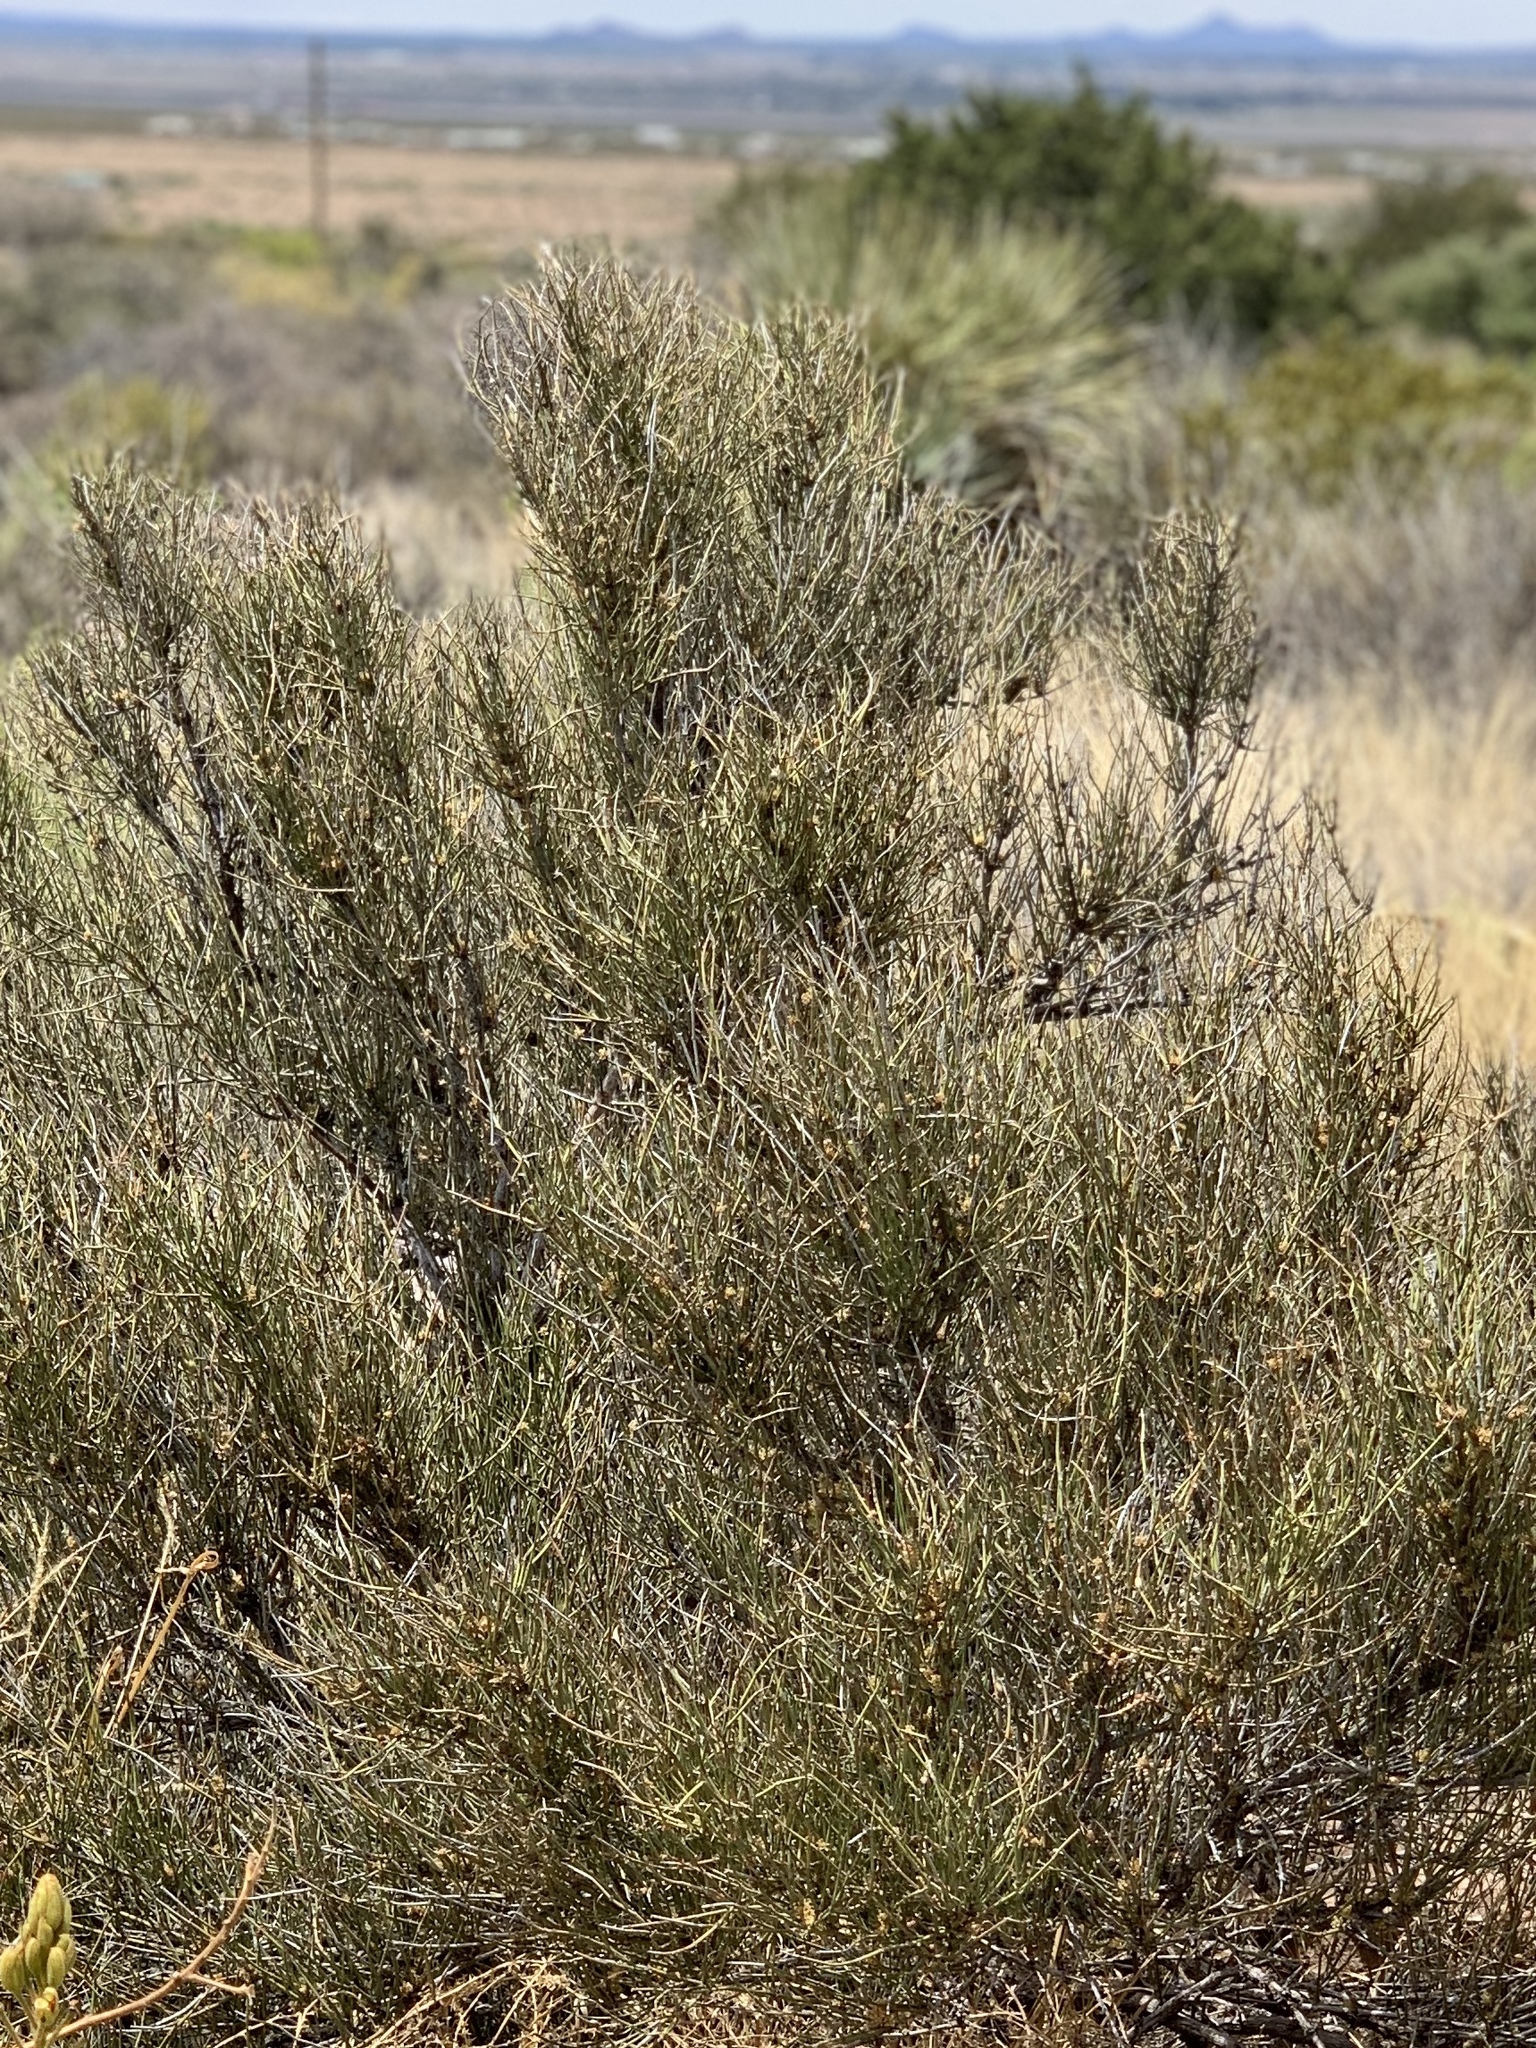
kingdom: Plantae
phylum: Tracheophyta
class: Gnetopsida
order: Ephedrales
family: Ephedraceae
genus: Ephedra
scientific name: Ephedra trifurca
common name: Mexican-tea
